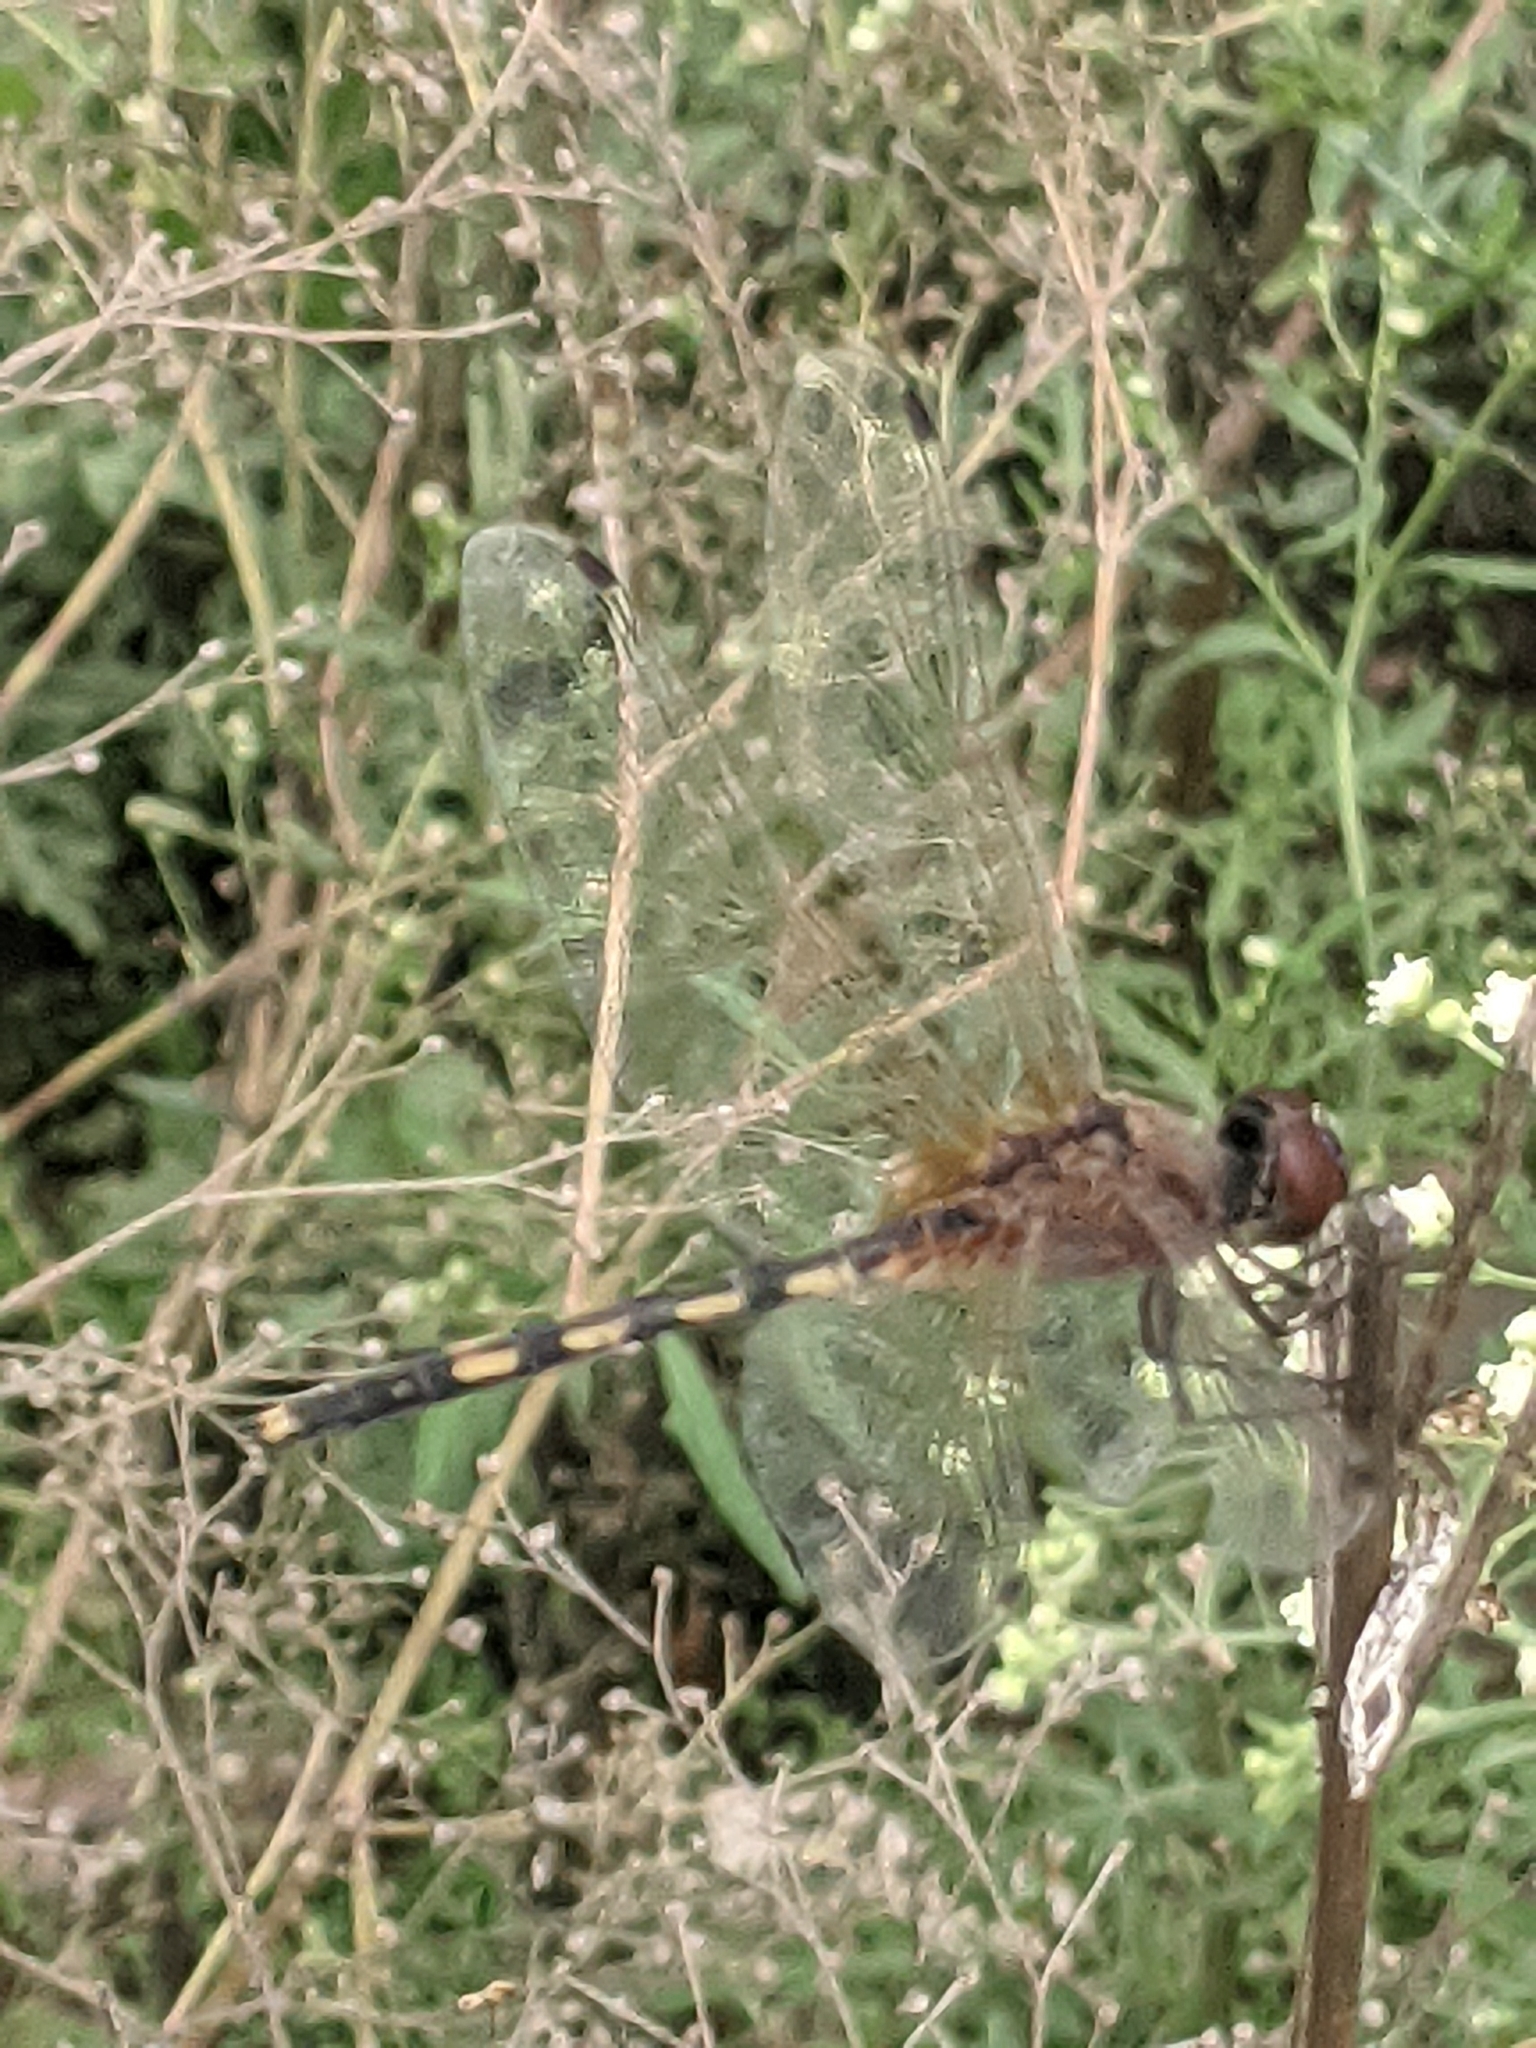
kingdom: Animalia
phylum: Arthropoda
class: Insecta
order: Odonata
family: Libellulidae
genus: Trithemis
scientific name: Trithemis pallidinervis
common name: Dancing dropwing
